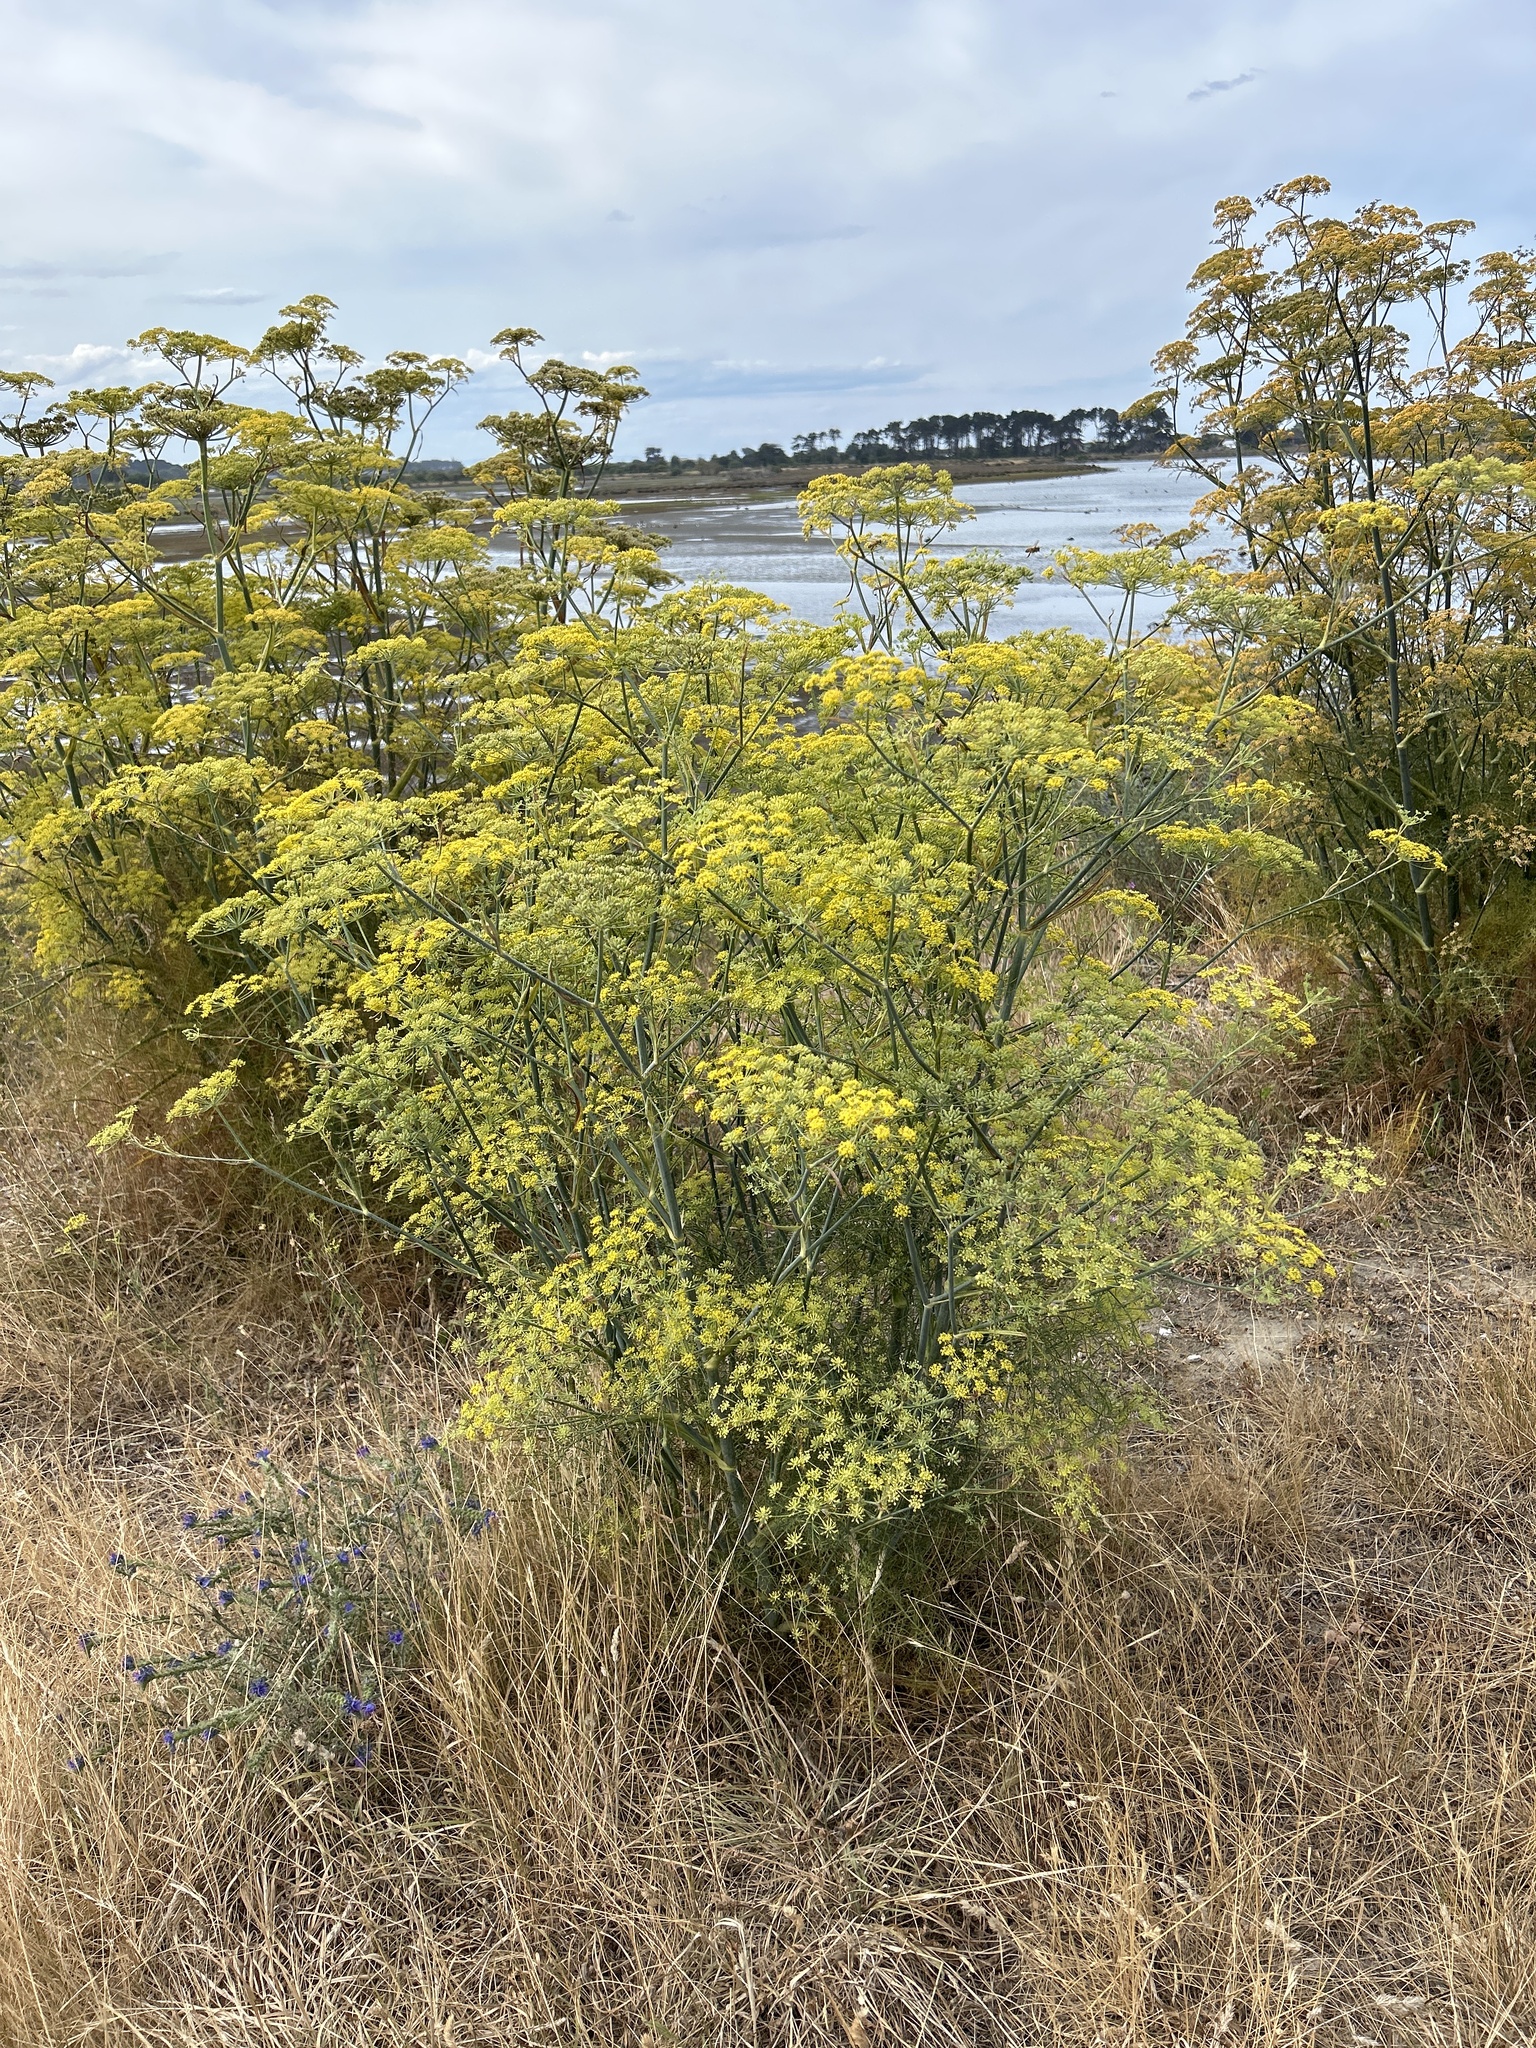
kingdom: Plantae
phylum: Tracheophyta
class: Magnoliopsida
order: Apiales
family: Apiaceae
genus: Foeniculum
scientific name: Foeniculum vulgare
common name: Fennel
